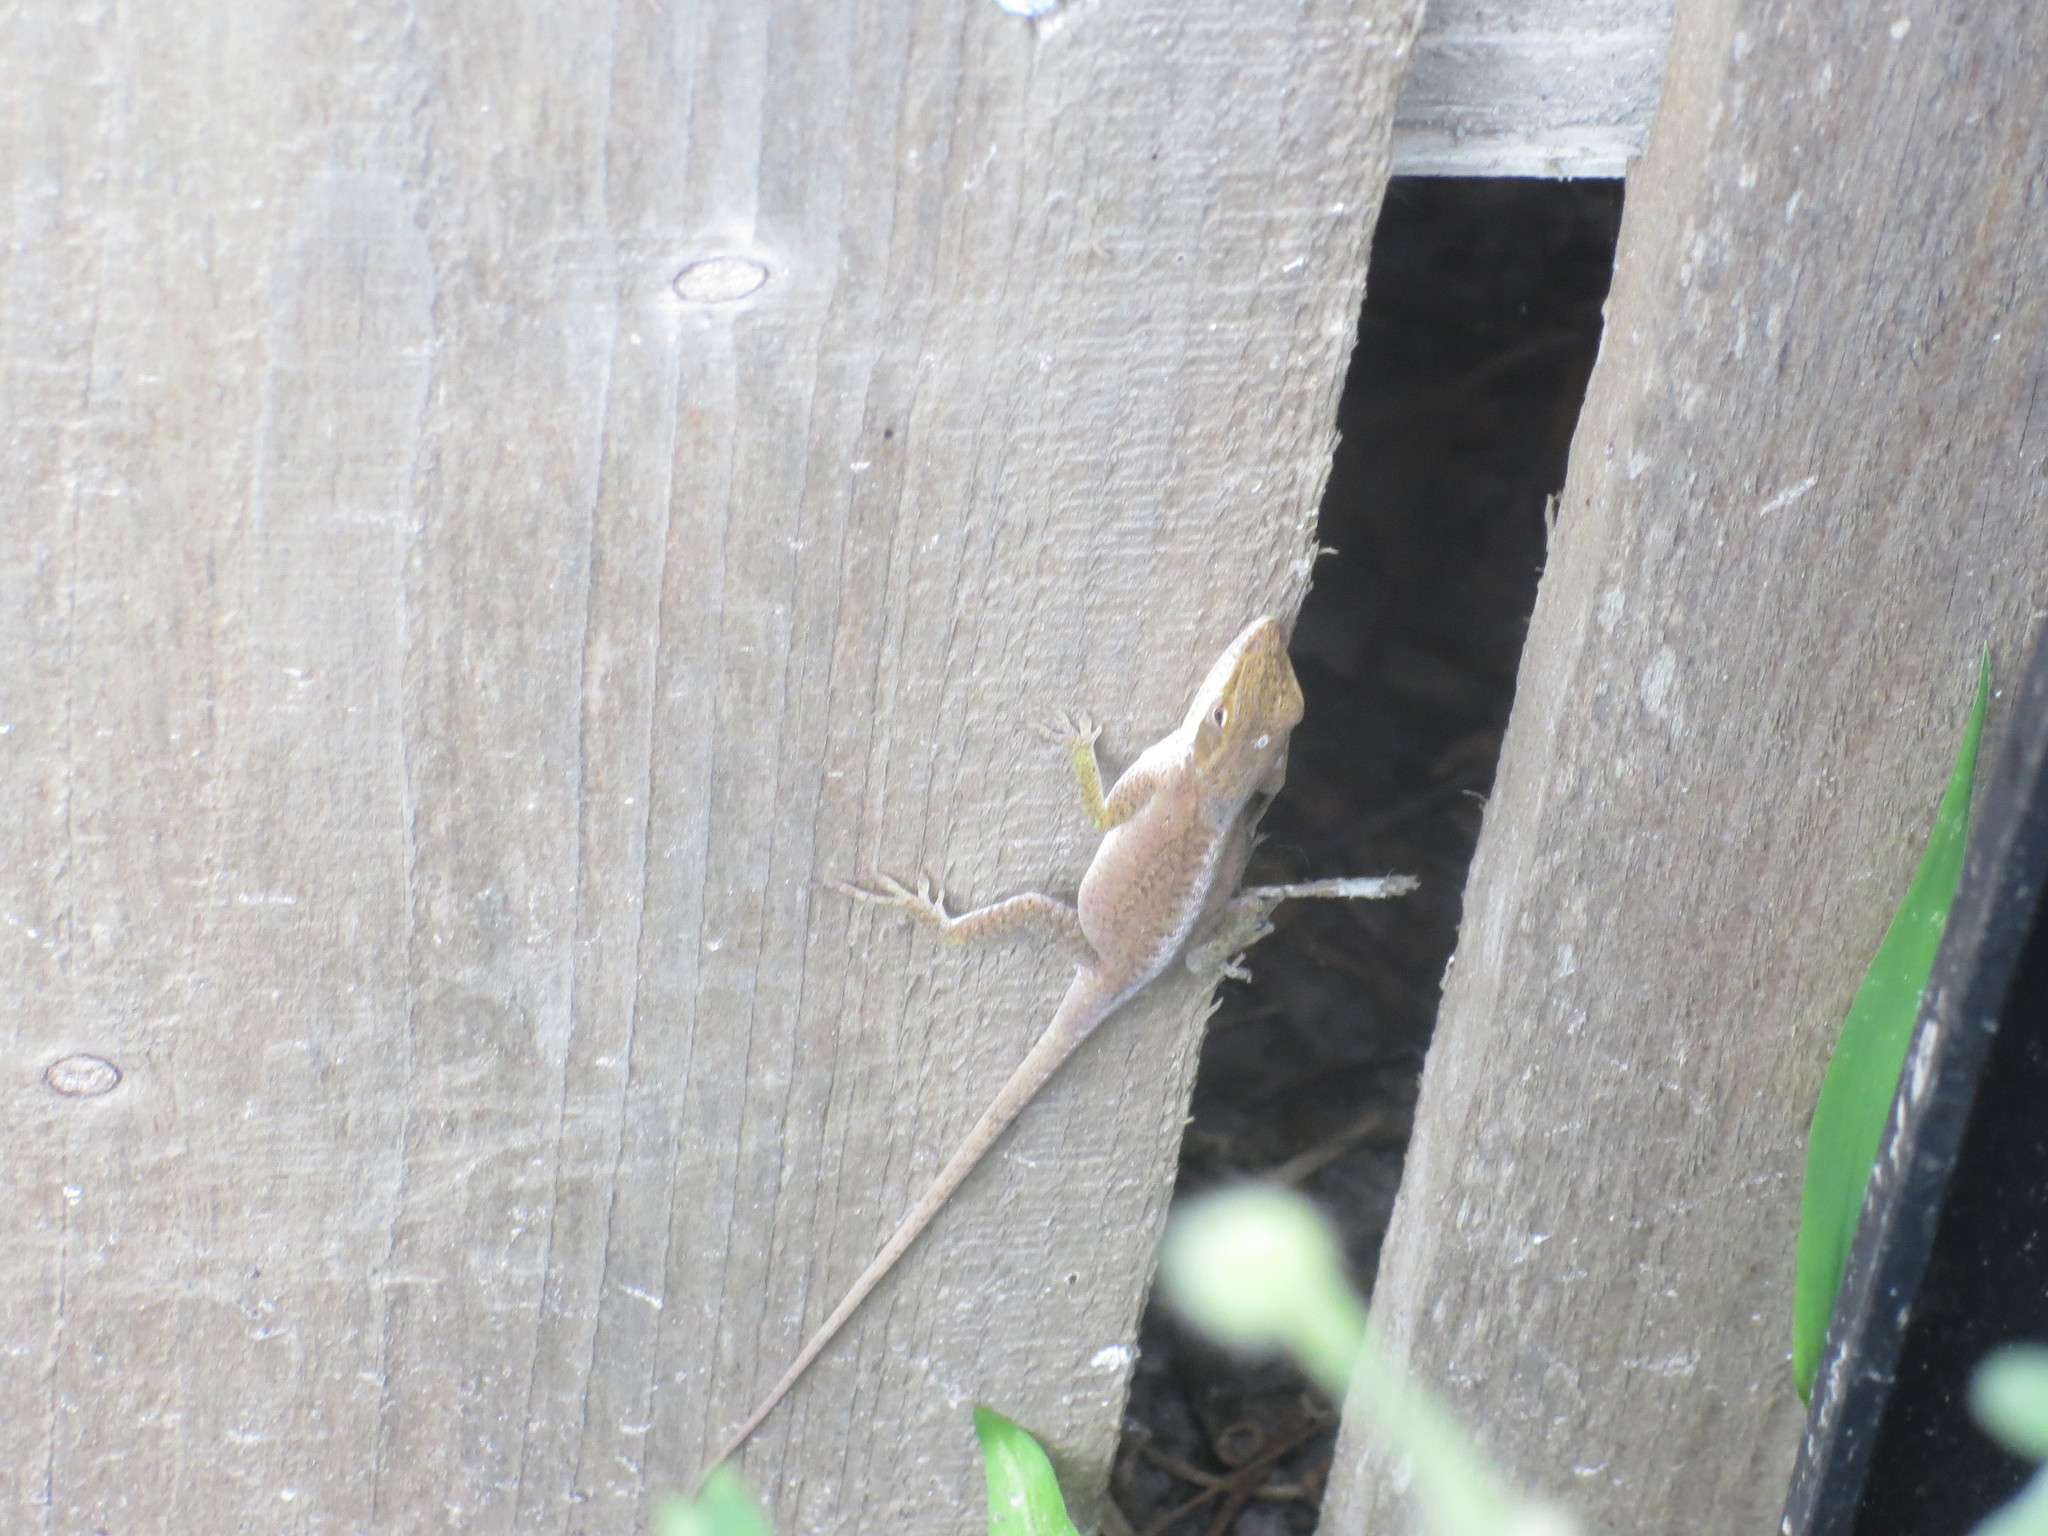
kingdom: Animalia
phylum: Chordata
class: Squamata
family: Dactyloidae
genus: Anolis
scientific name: Anolis carolinensis
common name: Green anole
